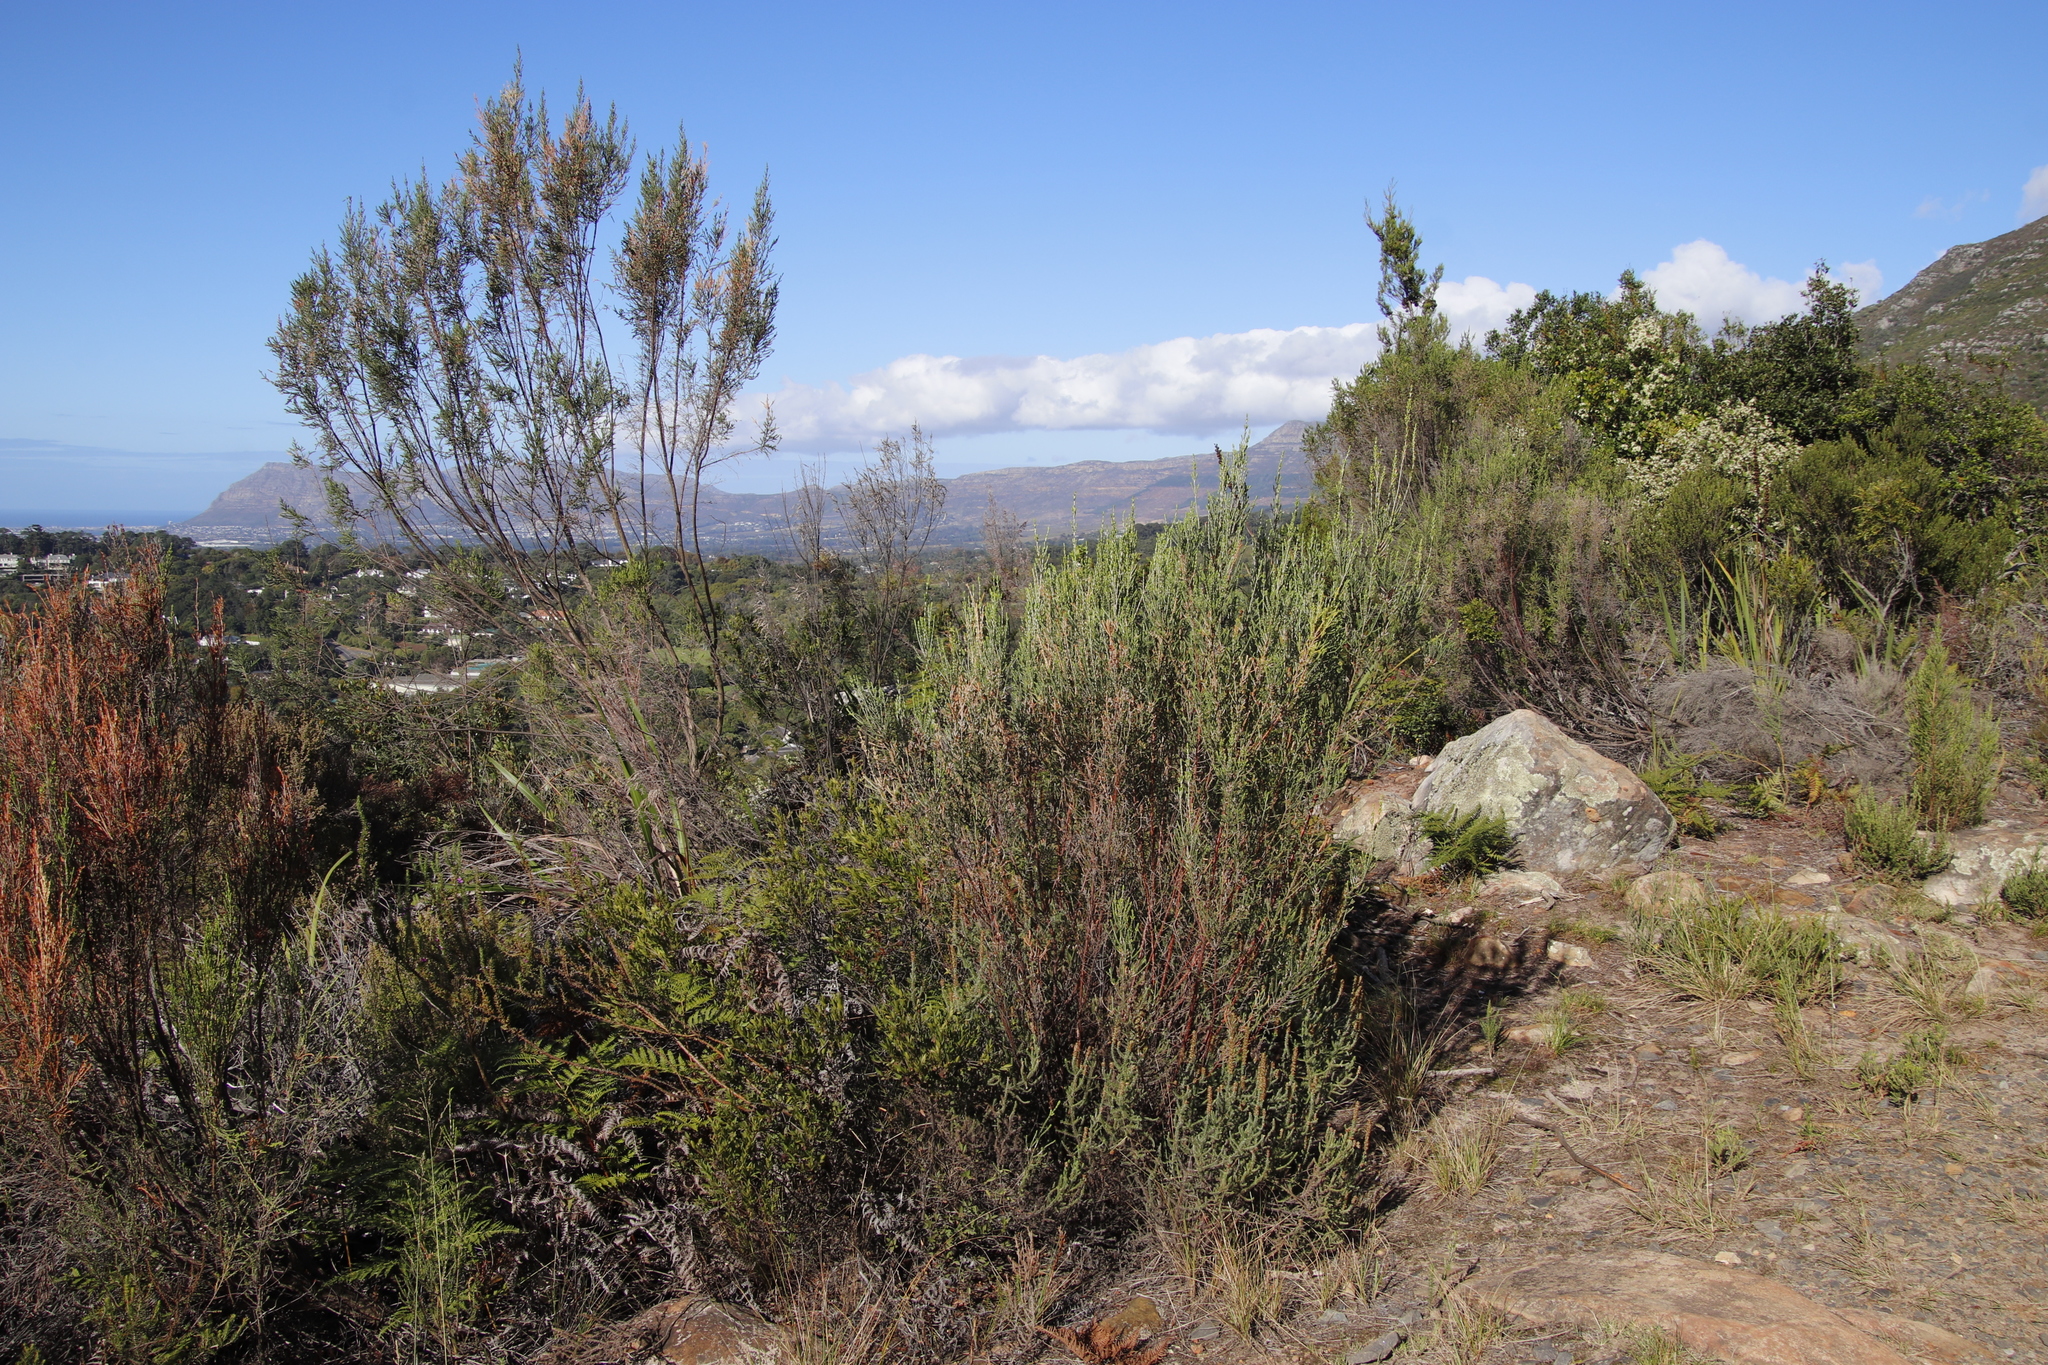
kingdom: Plantae
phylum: Tracheophyta
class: Magnoliopsida
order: Malvales
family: Thymelaeaceae
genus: Passerina
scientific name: Passerina corymbosa
